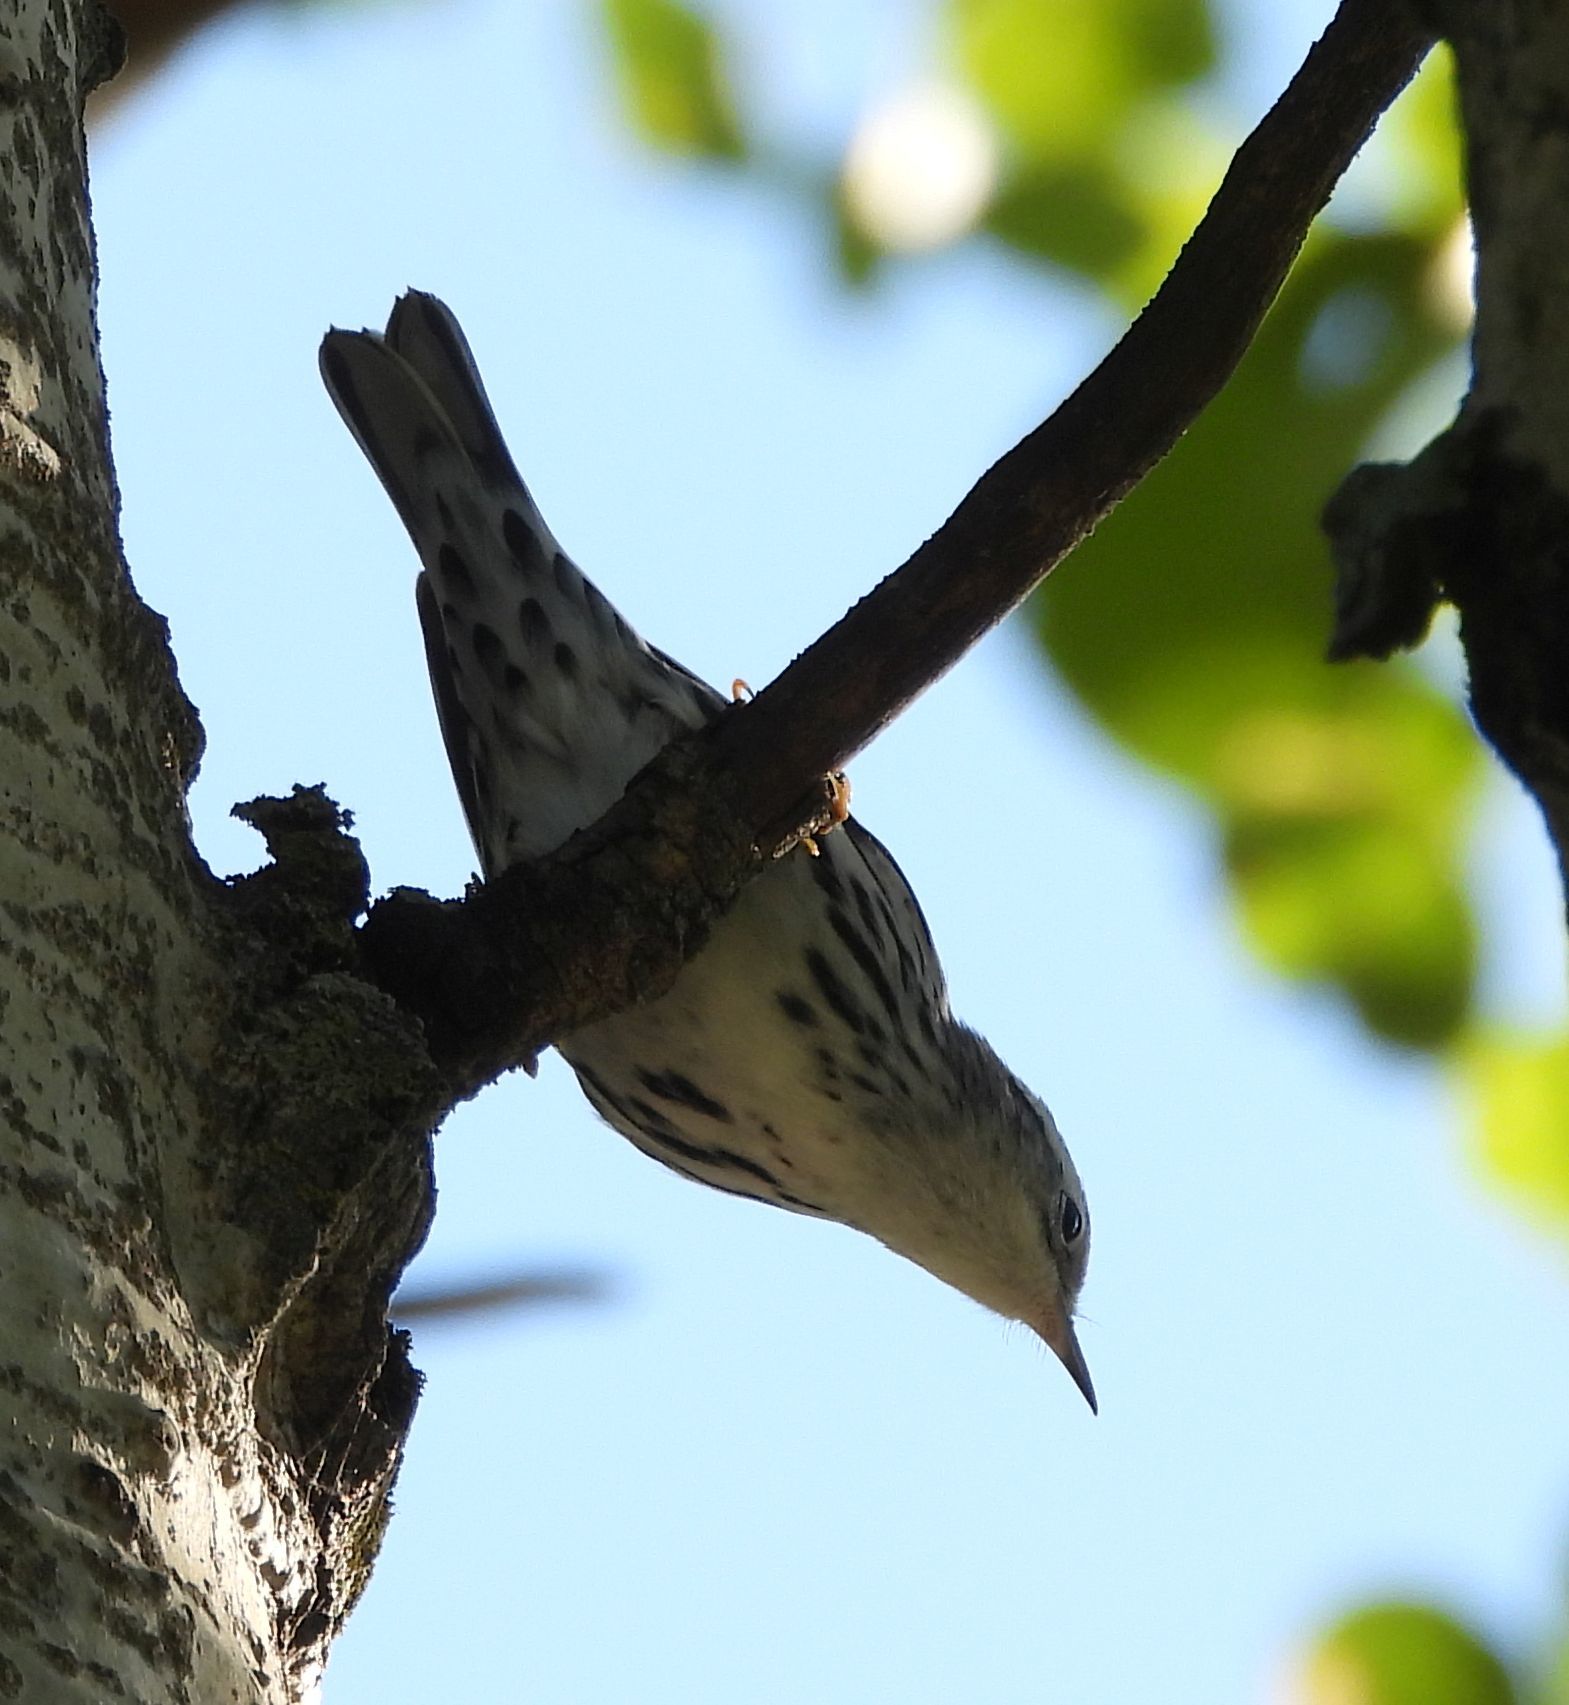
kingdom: Animalia
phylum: Chordata
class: Aves
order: Passeriformes
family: Parulidae
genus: Mniotilta
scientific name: Mniotilta varia
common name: Black-and-white warbler
